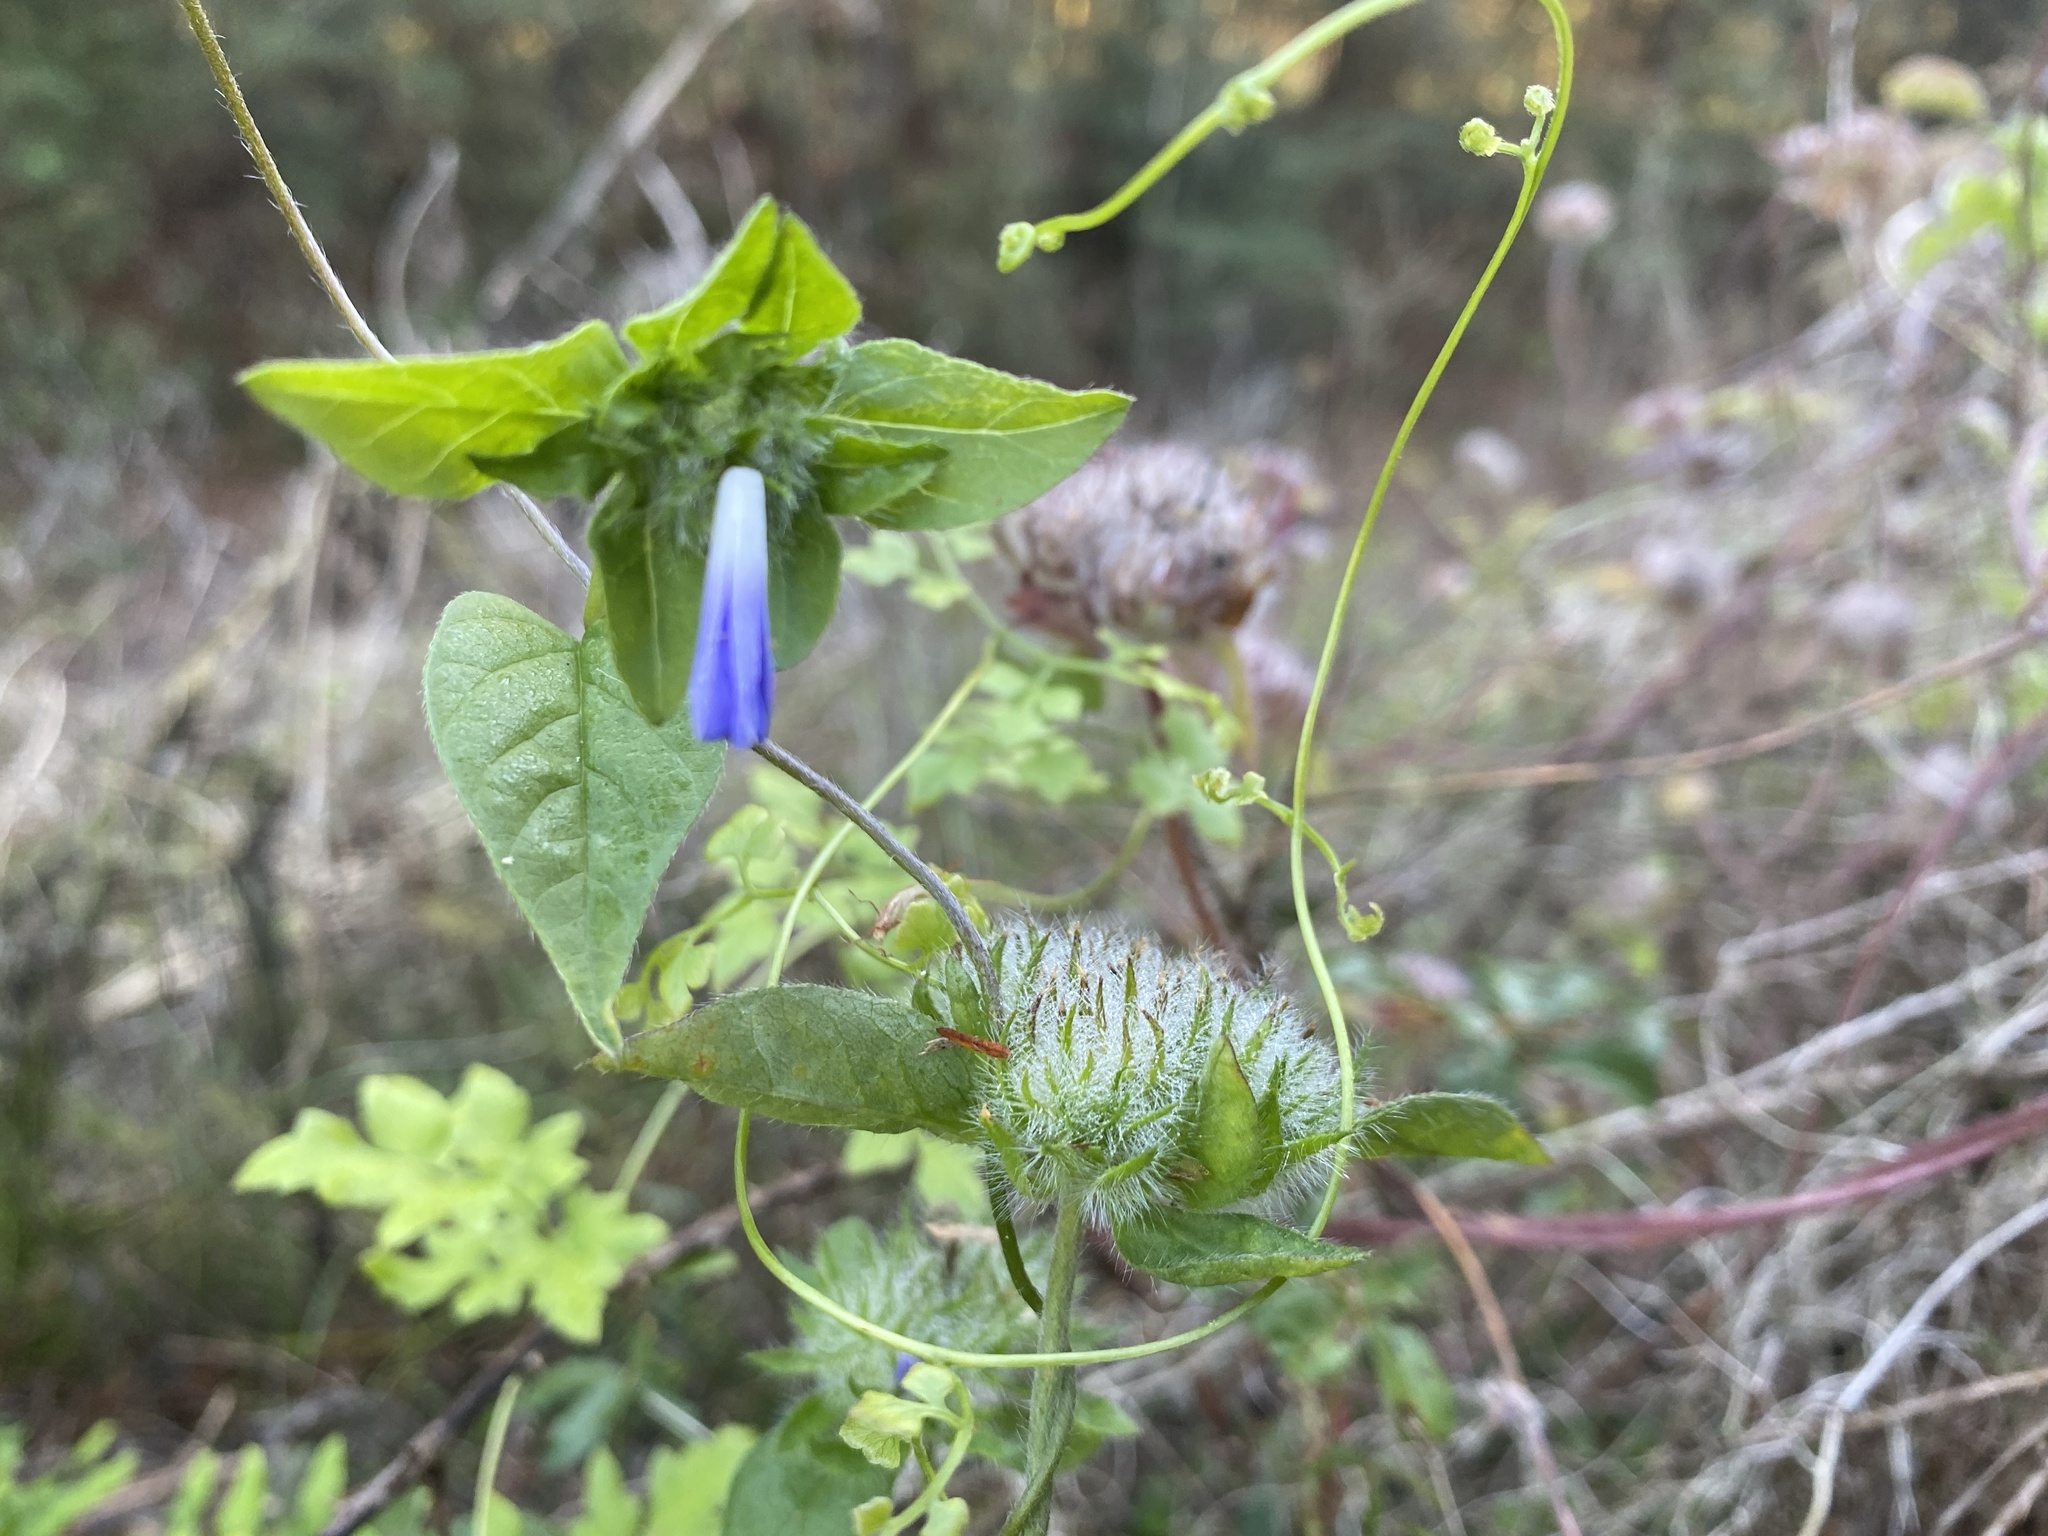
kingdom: Plantae
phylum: Tracheophyta
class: Magnoliopsida
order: Solanales
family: Convolvulaceae
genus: Jacquemontia
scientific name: Jacquemontia tamnifolia
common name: Hairy clustervine
